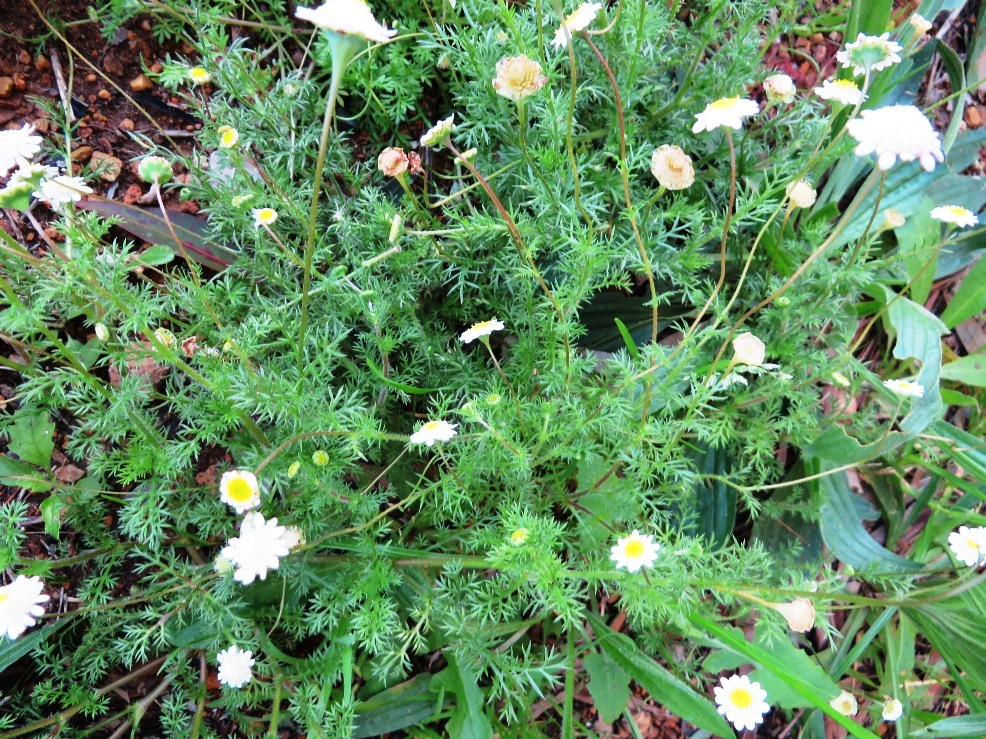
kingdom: Plantae
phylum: Tracheophyta
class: Magnoliopsida
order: Asterales
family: Asteraceae
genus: Cotula
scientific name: Cotula turbinata
